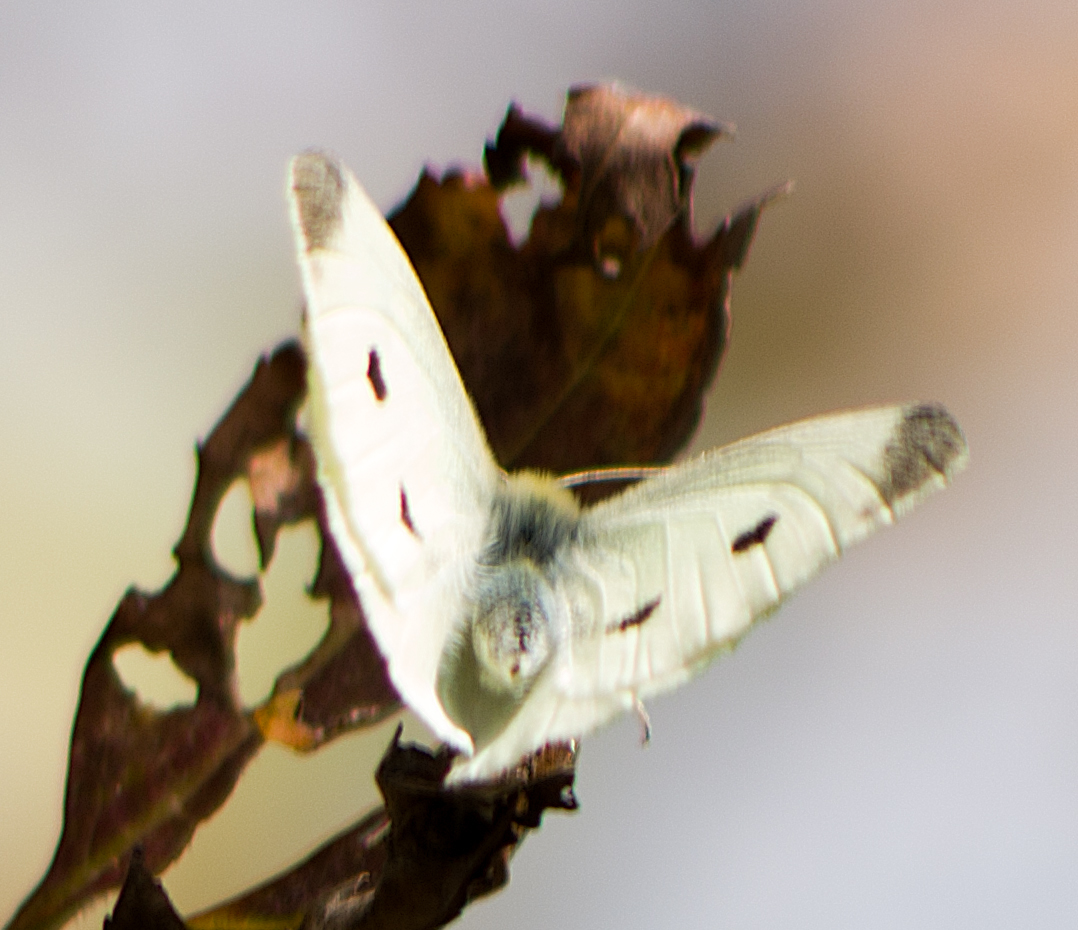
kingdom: Animalia
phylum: Arthropoda
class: Insecta
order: Lepidoptera
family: Pieridae
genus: Pieris
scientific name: Pieris rapae
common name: Small white
